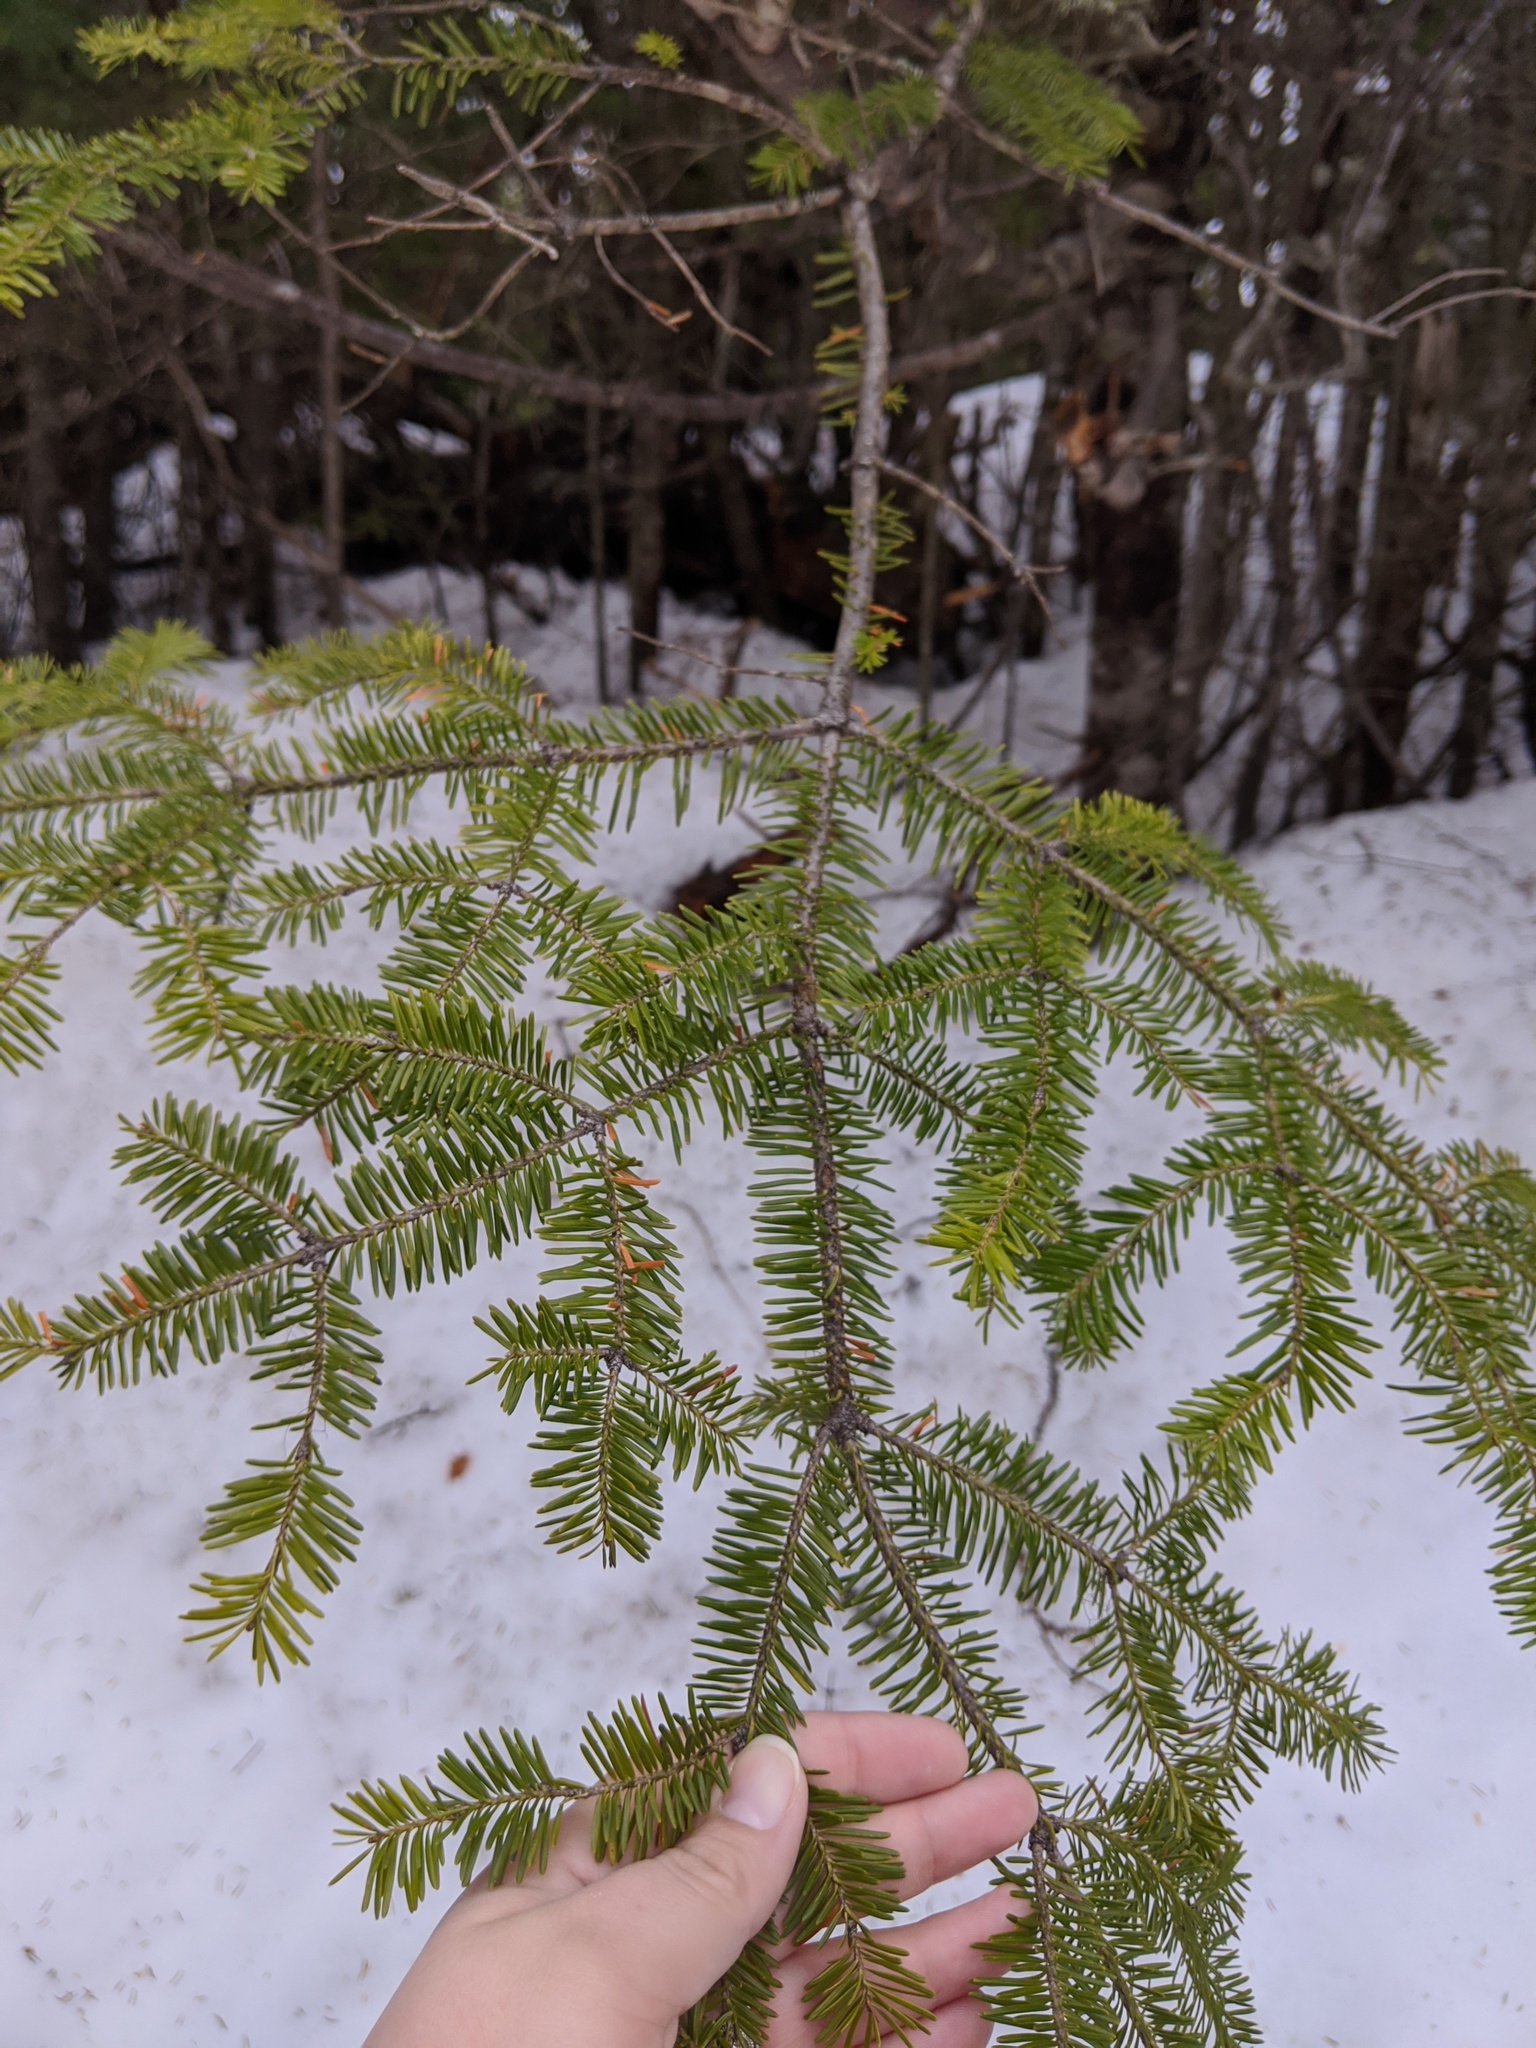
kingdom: Plantae
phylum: Tracheophyta
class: Pinopsida
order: Pinales
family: Pinaceae
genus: Abies
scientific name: Abies balsamea
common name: Balsam fir
